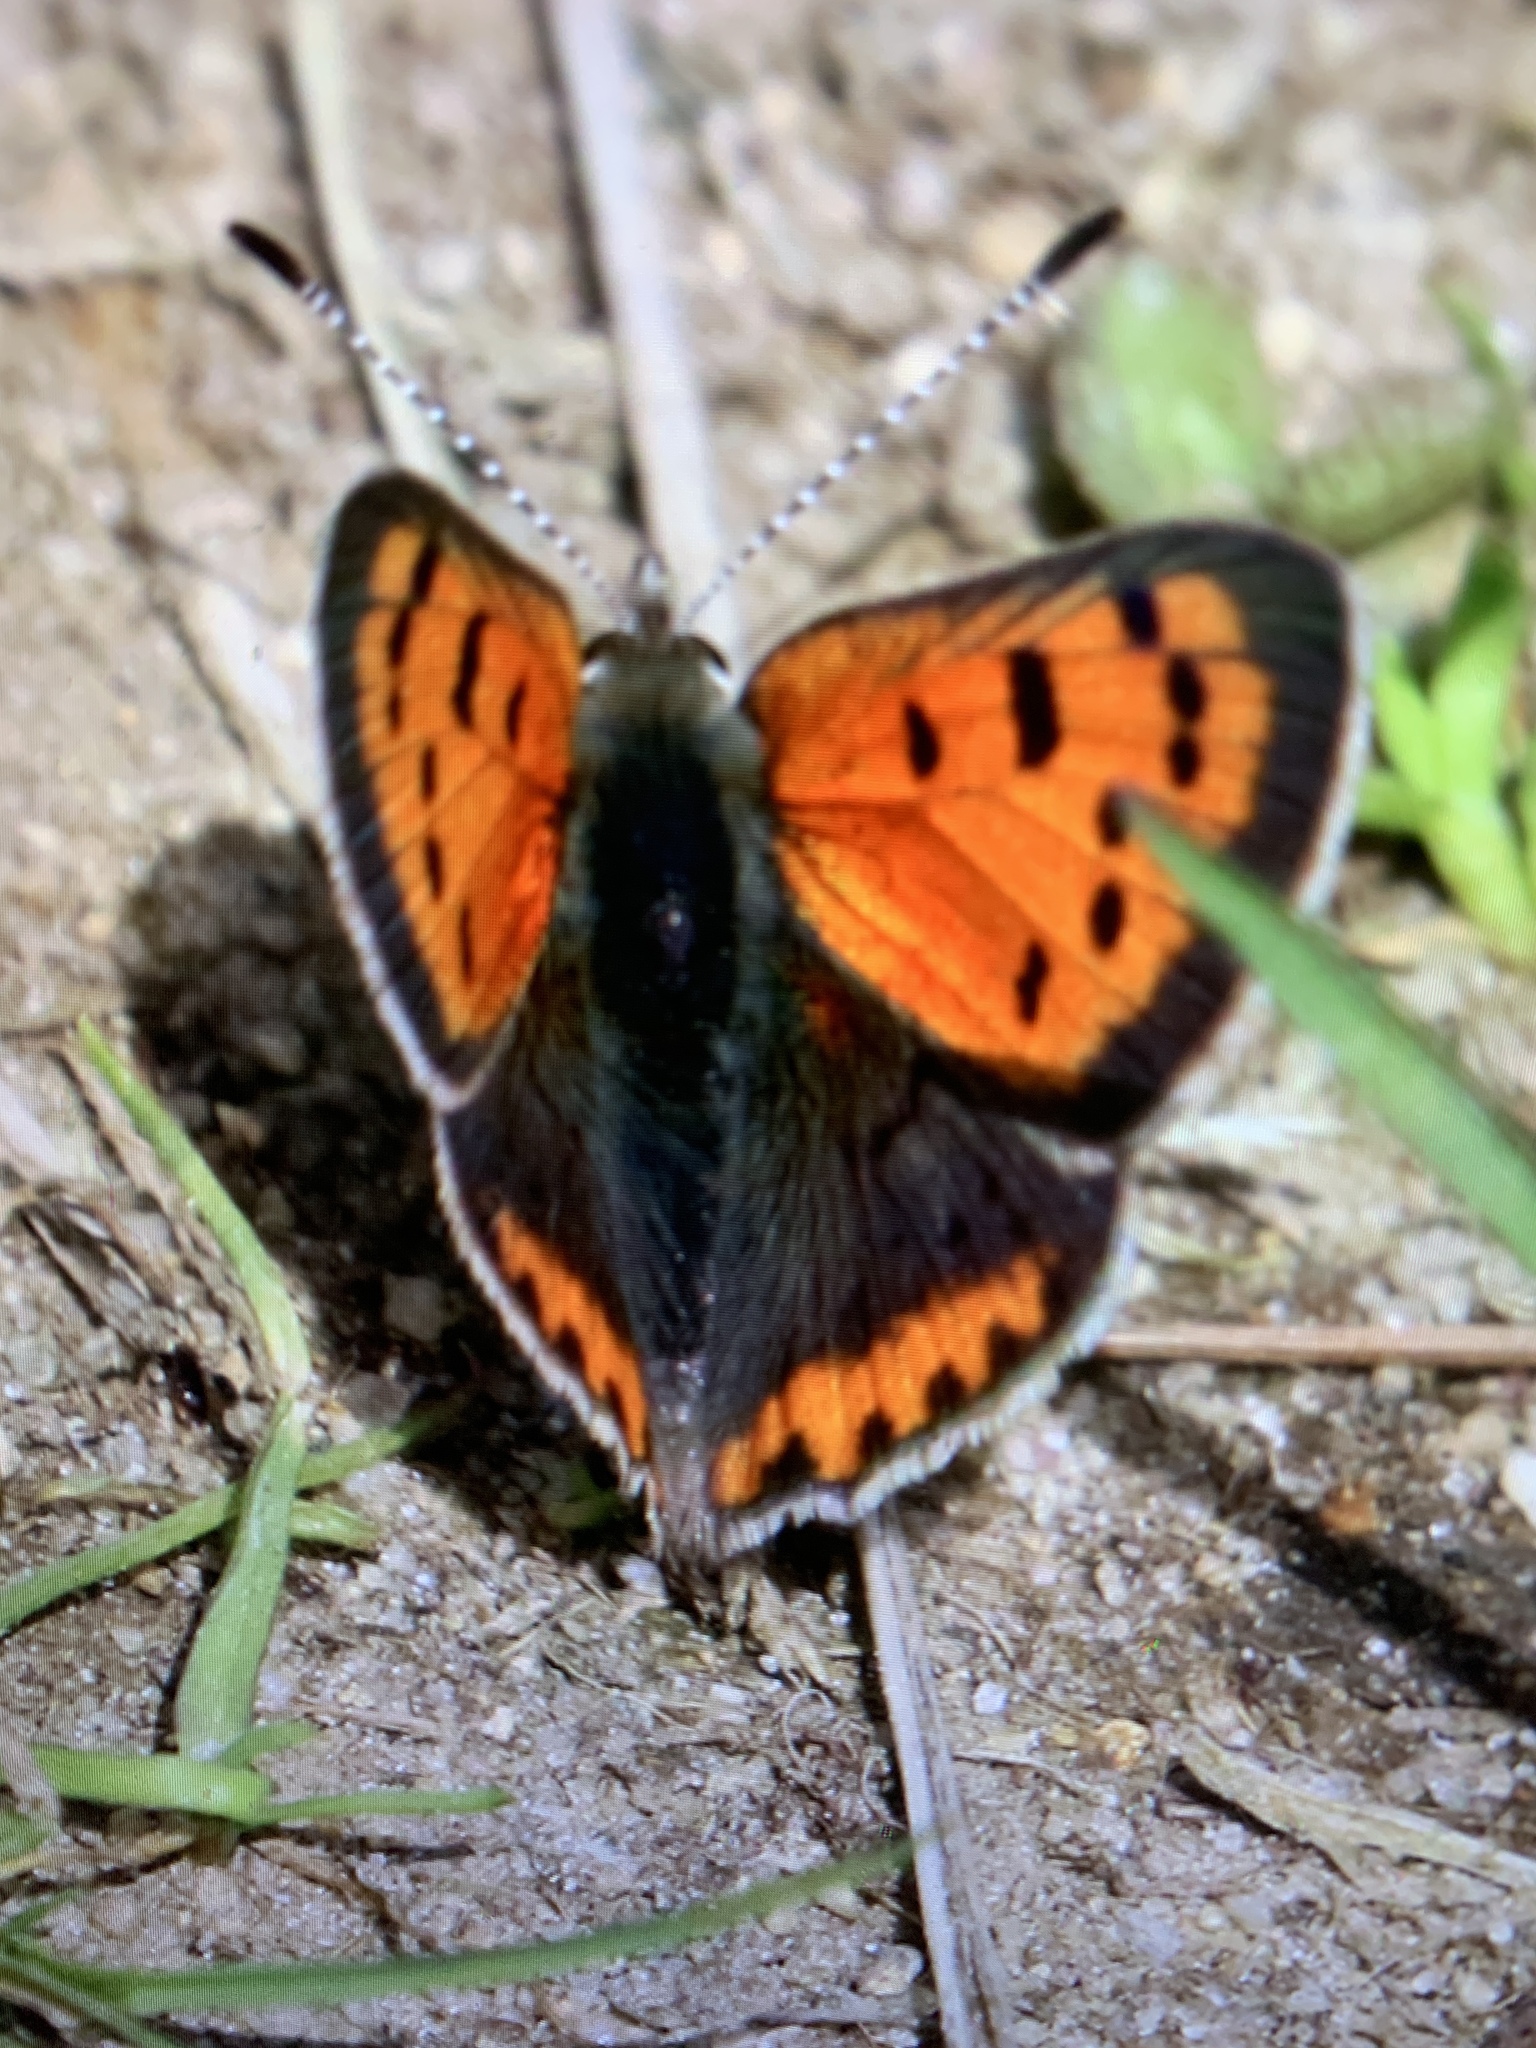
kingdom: Animalia
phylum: Arthropoda
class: Insecta
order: Lepidoptera
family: Lycaenidae
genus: Lycaena
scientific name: Lycaena hypophlaeas
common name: American copper
